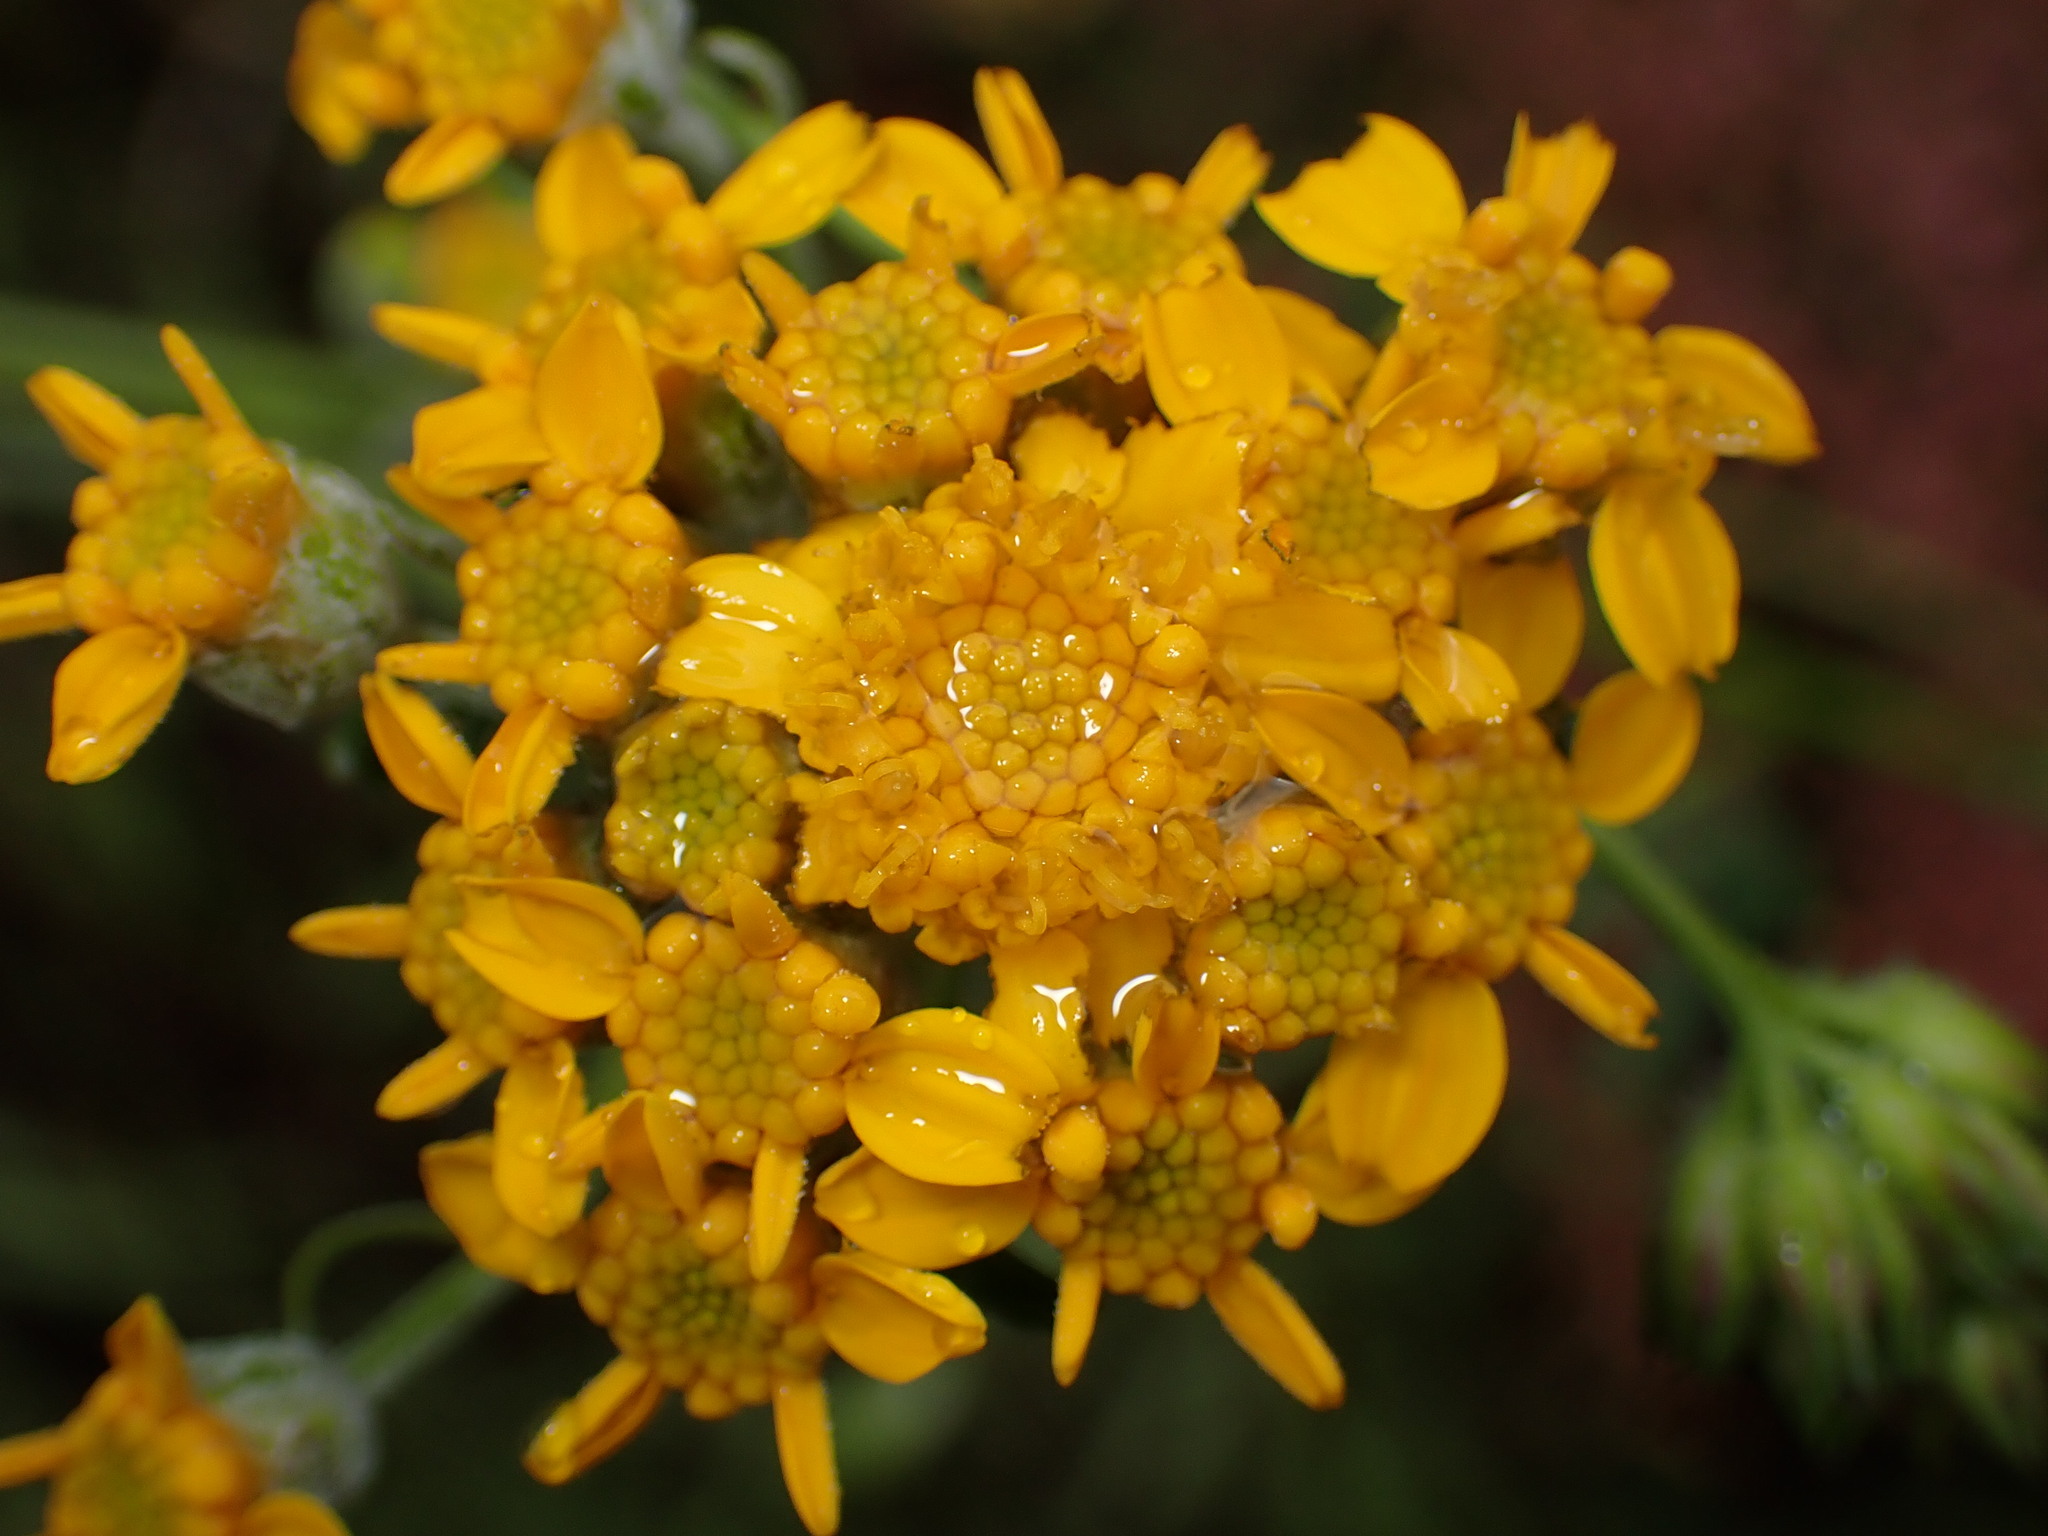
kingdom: Plantae
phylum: Tracheophyta
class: Magnoliopsida
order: Asterales
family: Asteraceae
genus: Eriophyllum
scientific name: Eriophyllum confertiflorum
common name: Golden-yarrow
